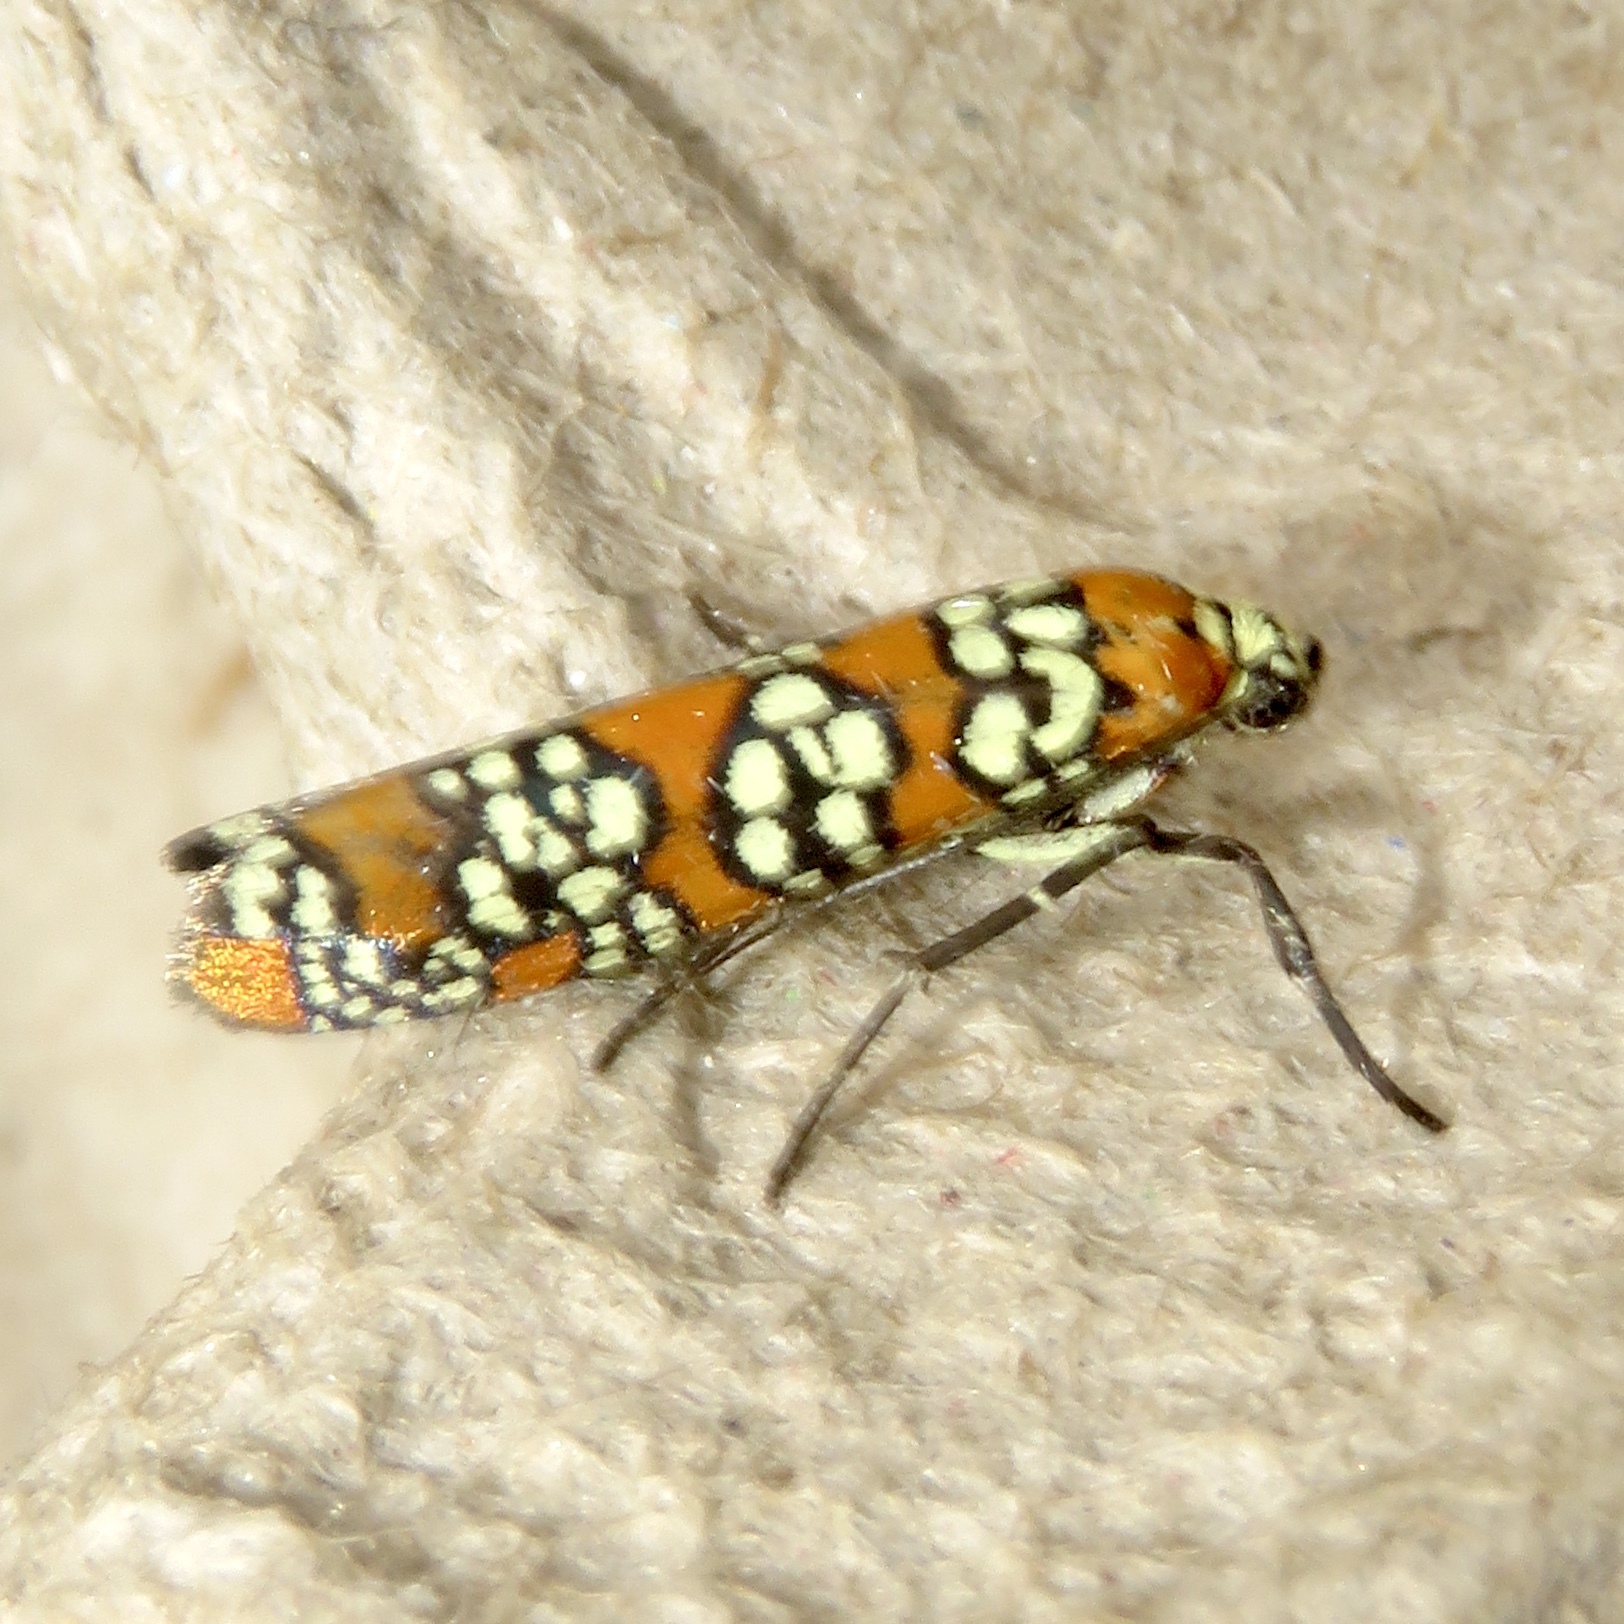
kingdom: Animalia
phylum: Arthropoda
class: Insecta
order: Lepidoptera
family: Attevidae
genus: Atteva
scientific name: Atteva punctella
